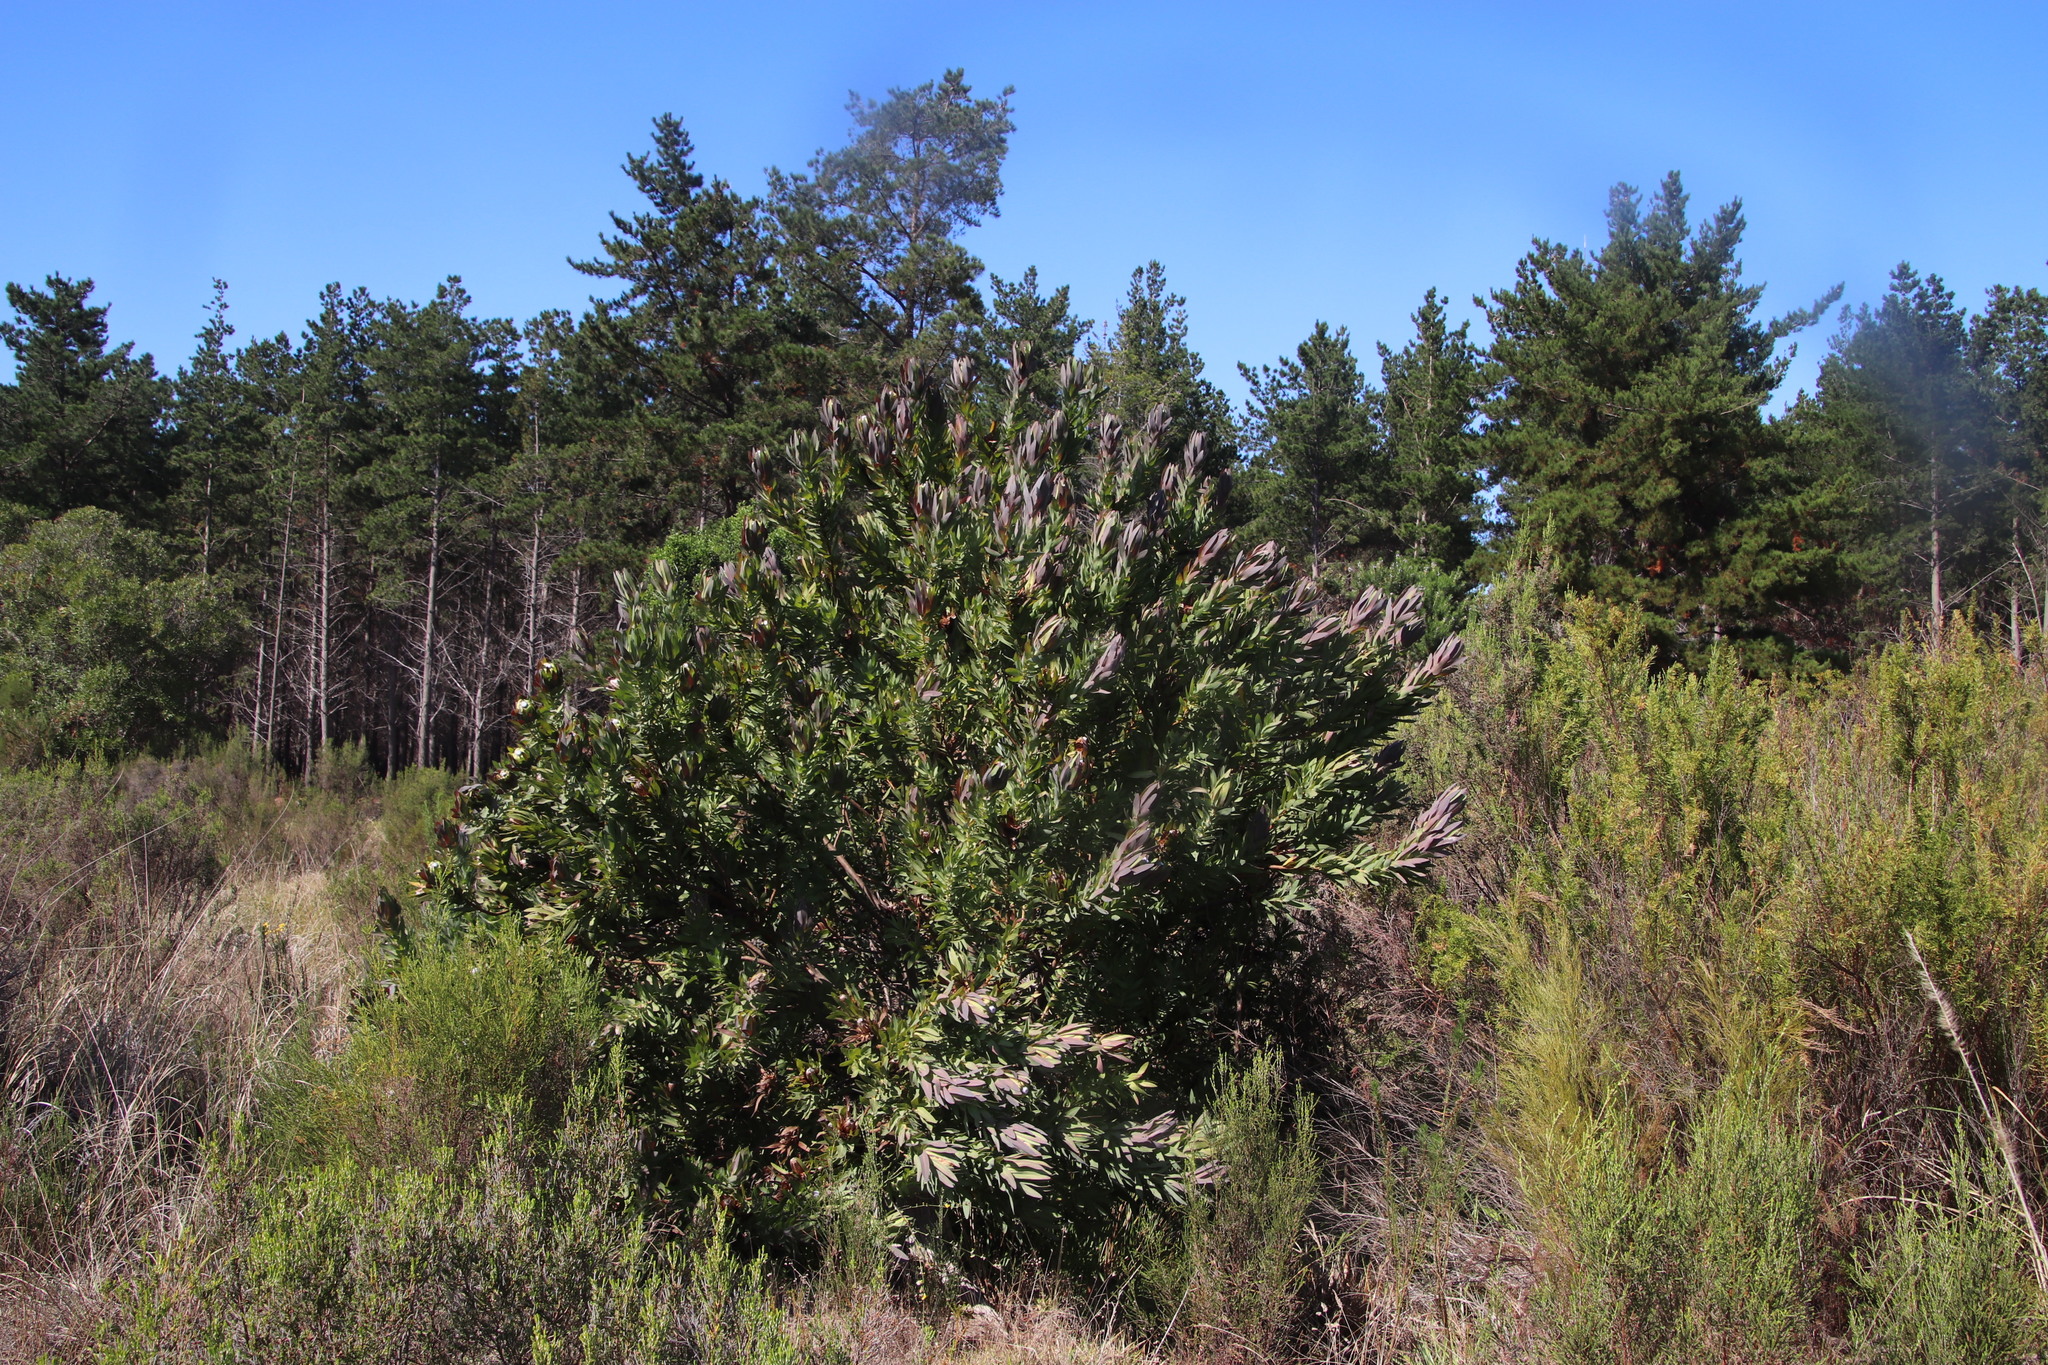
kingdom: Plantae
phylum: Tracheophyta
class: Magnoliopsida
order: Proteales
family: Proteaceae
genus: Protea
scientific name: Protea coronata
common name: Green sugarbush
